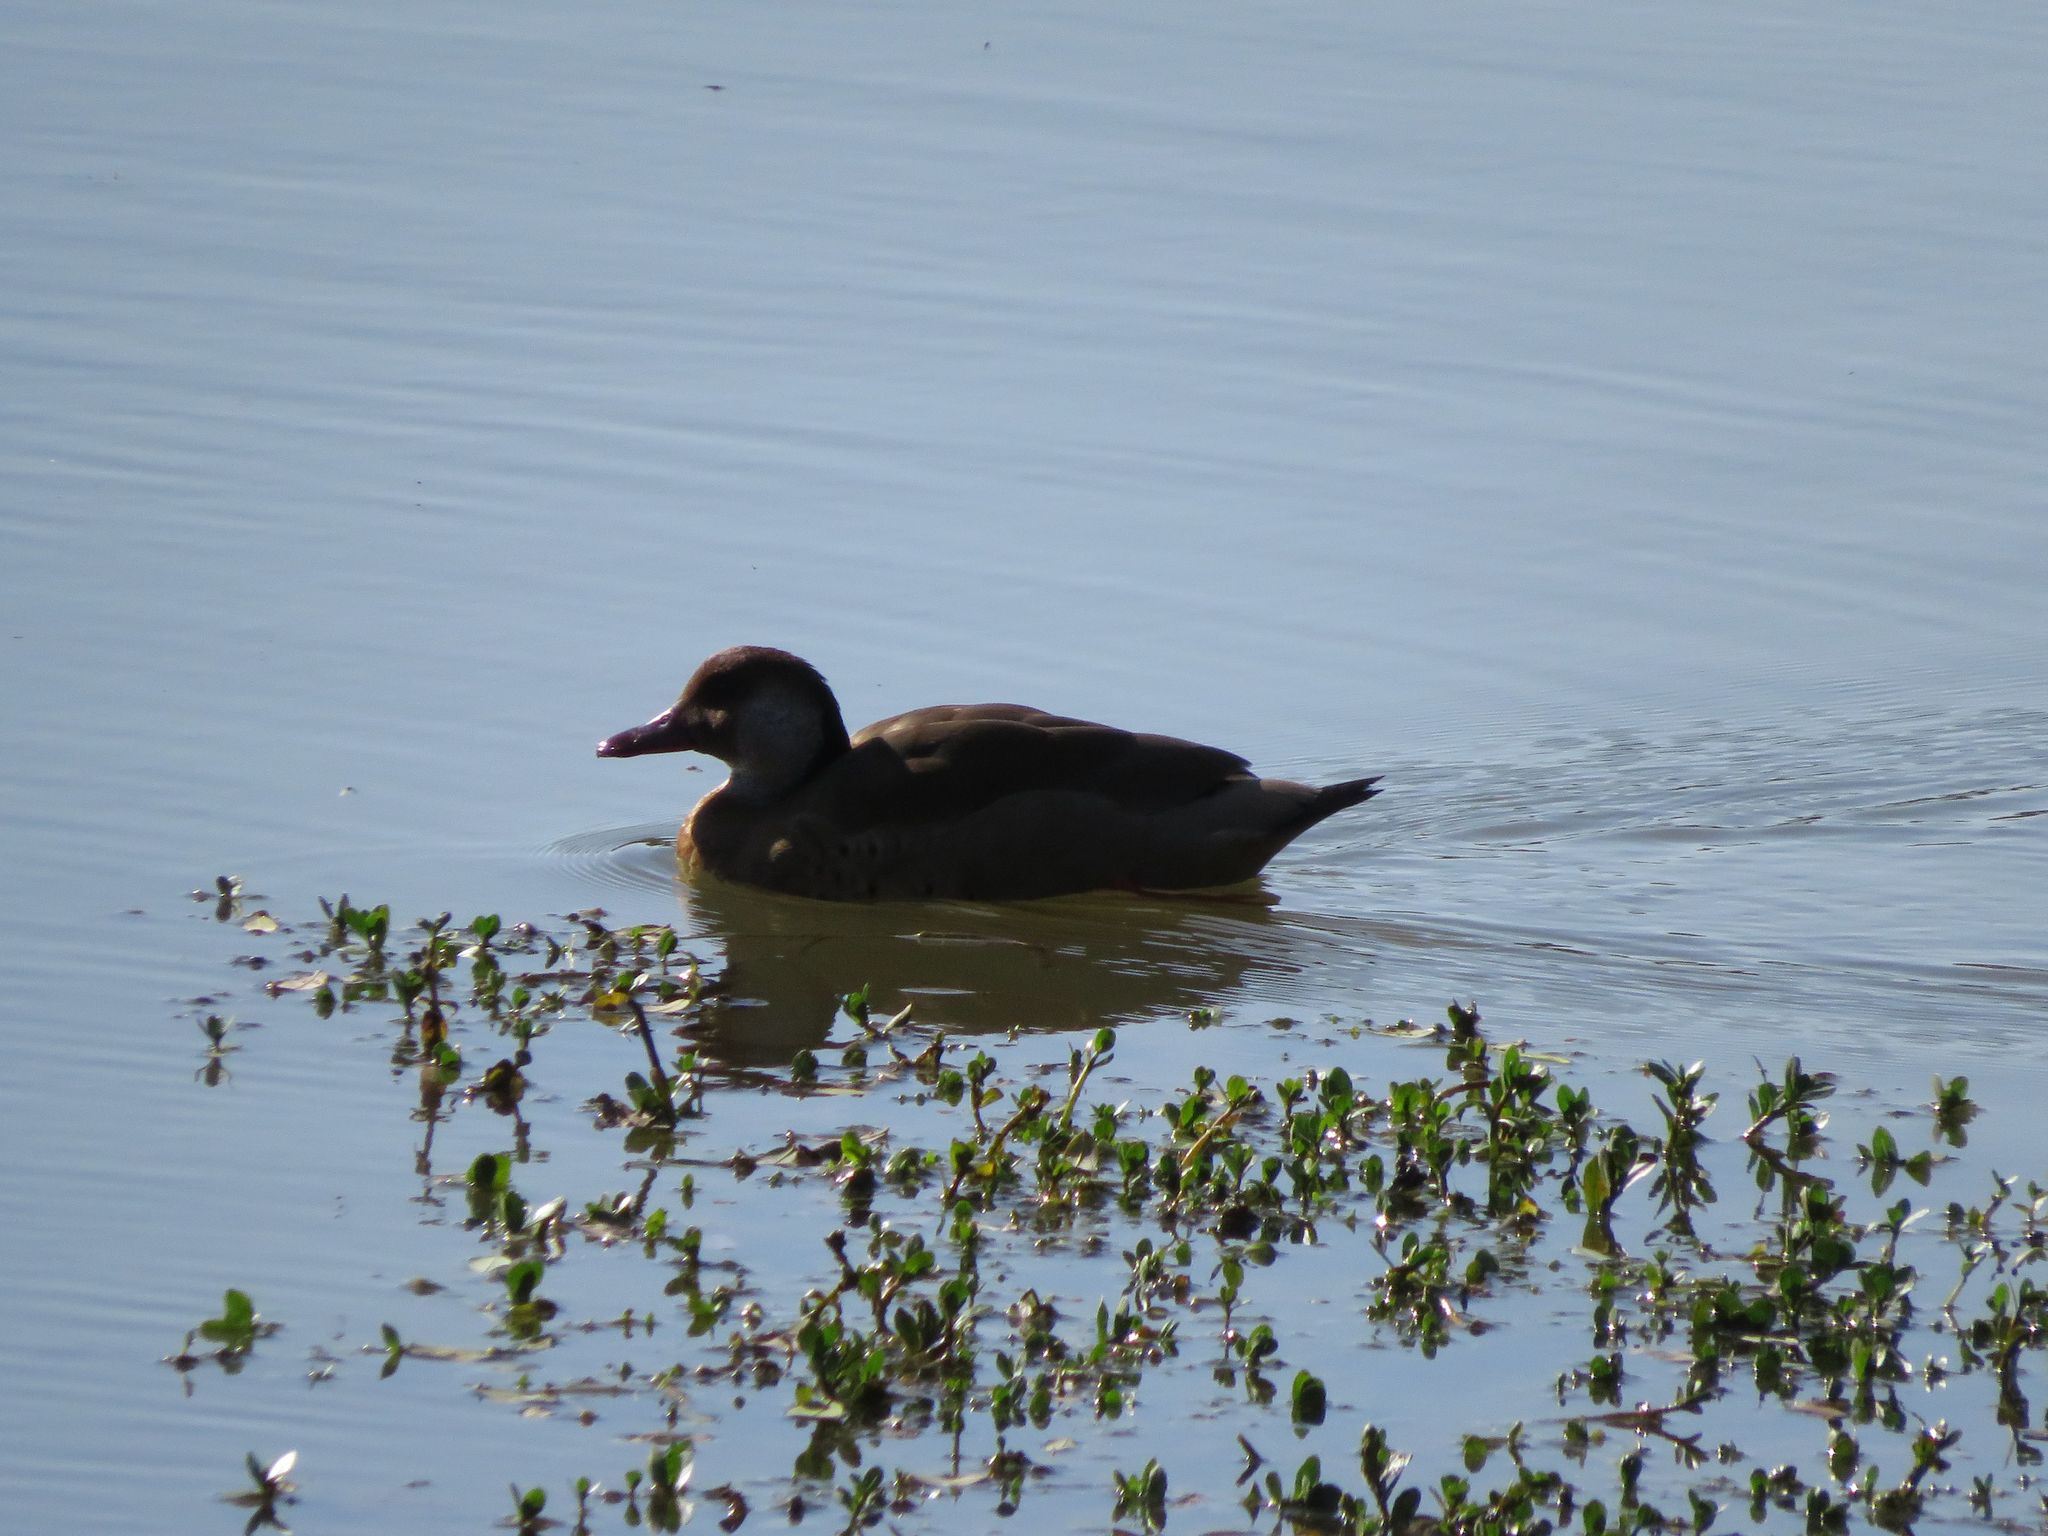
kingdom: Animalia
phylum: Chordata
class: Aves
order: Anseriformes
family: Anatidae
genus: Amazonetta
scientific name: Amazonetta brasiliensis
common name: Brazilian teal
